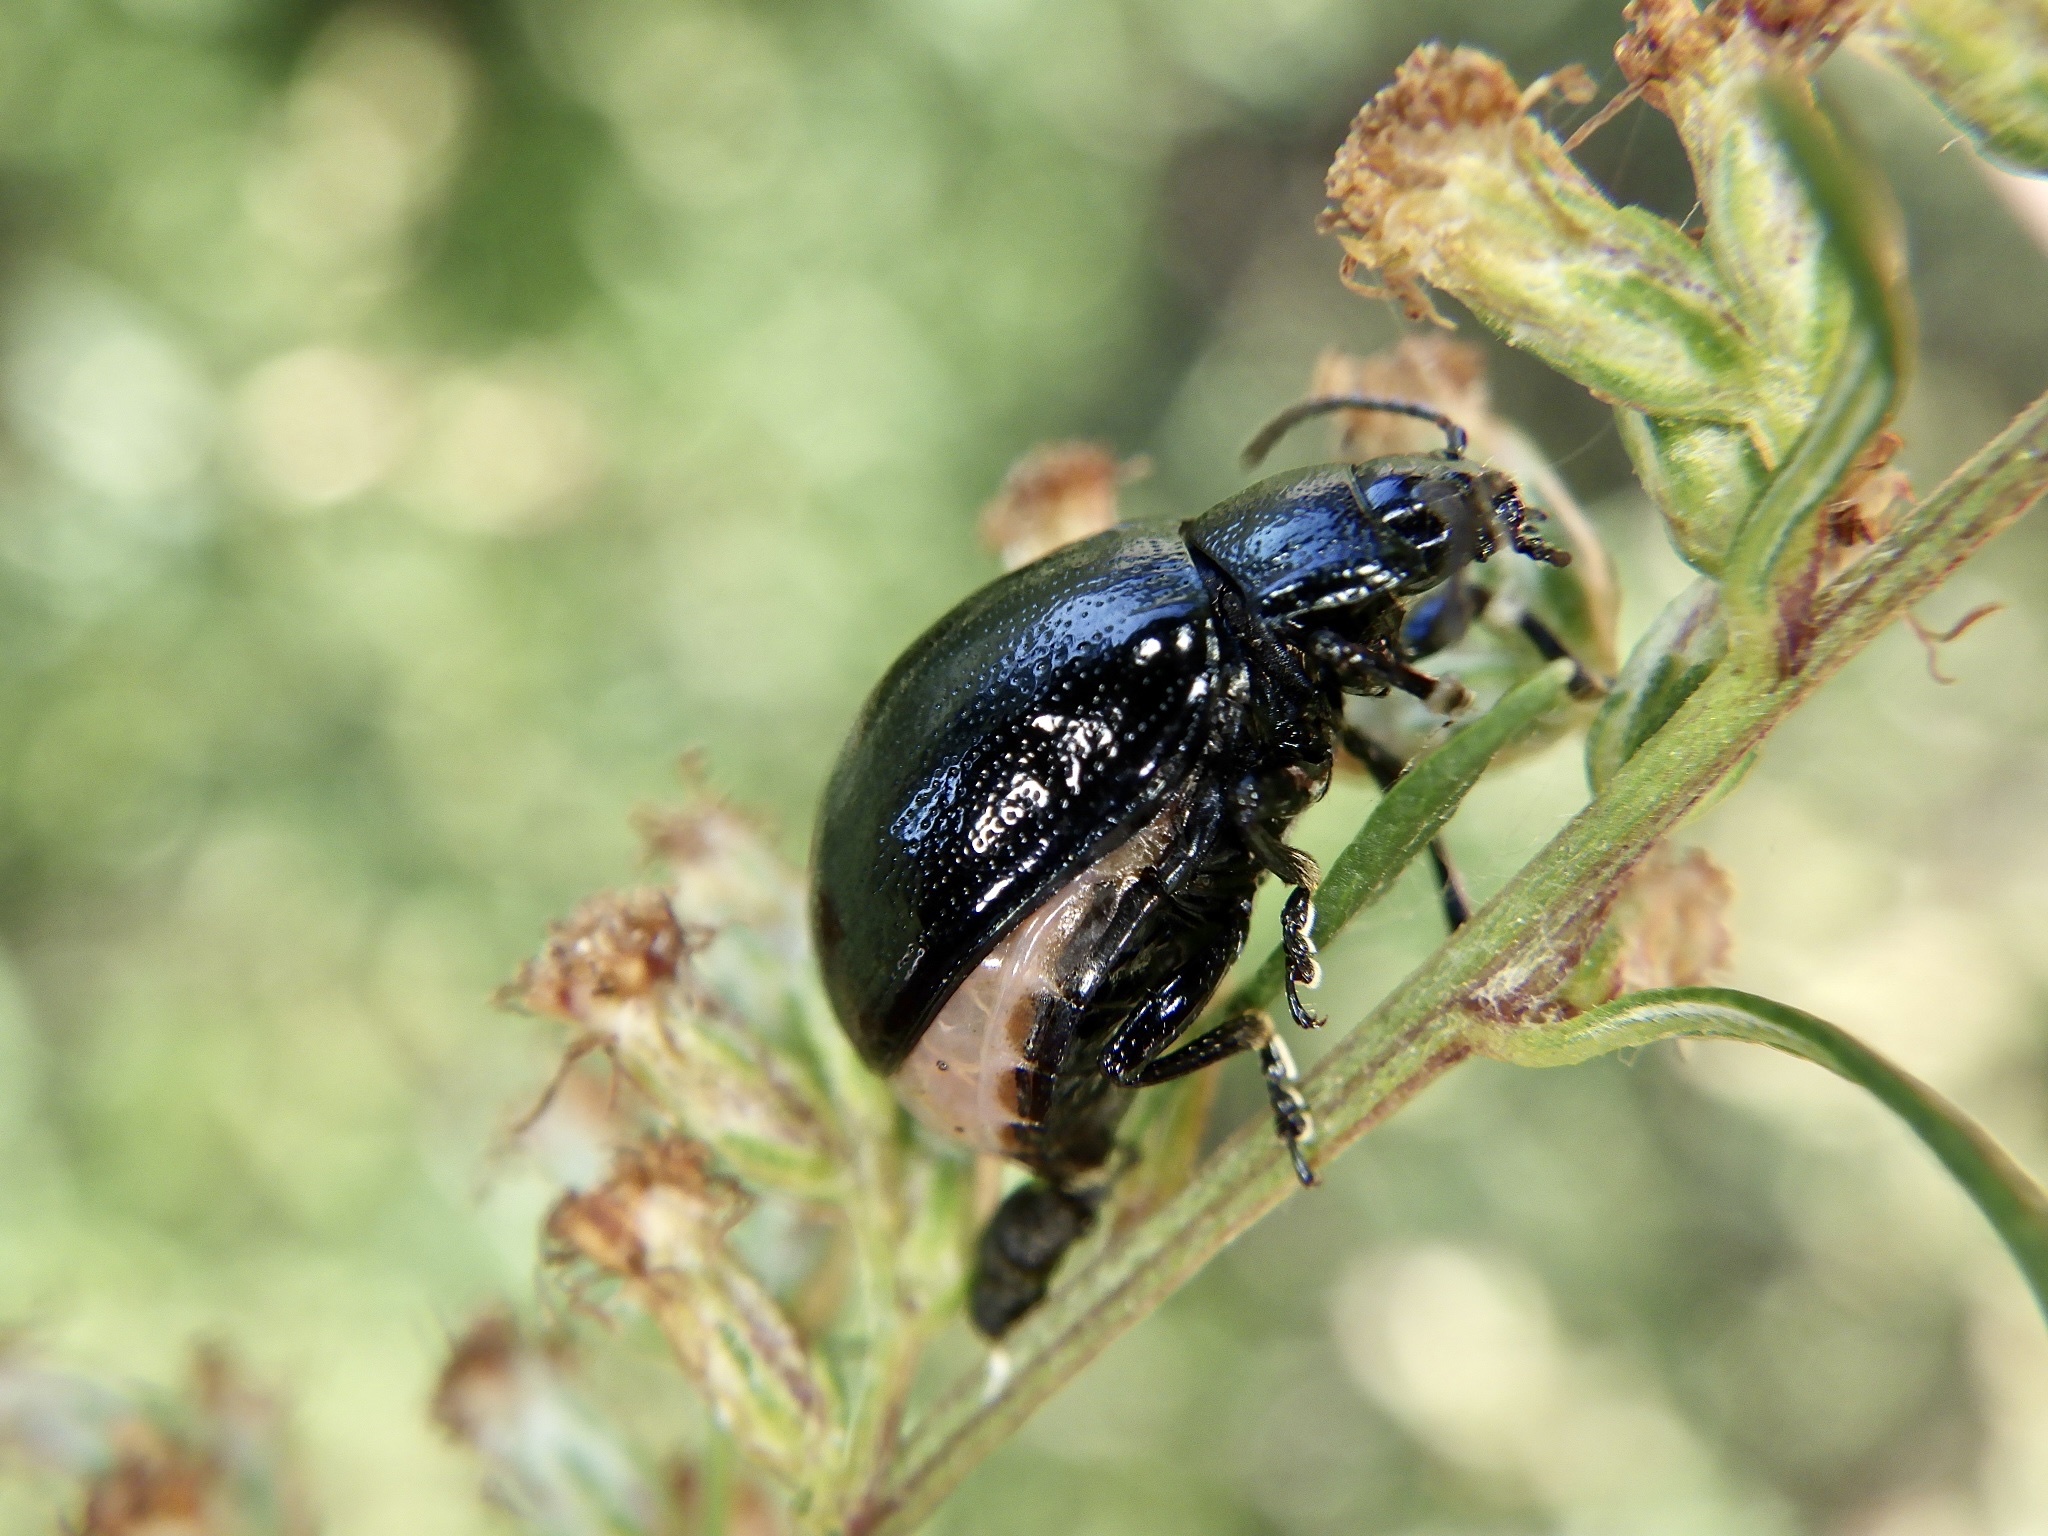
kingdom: Animalia
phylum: Arthropoda
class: Insecta
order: Coleoptera
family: Chrysomelidae
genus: Chrysolina
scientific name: Chrysolina aurichalcea
